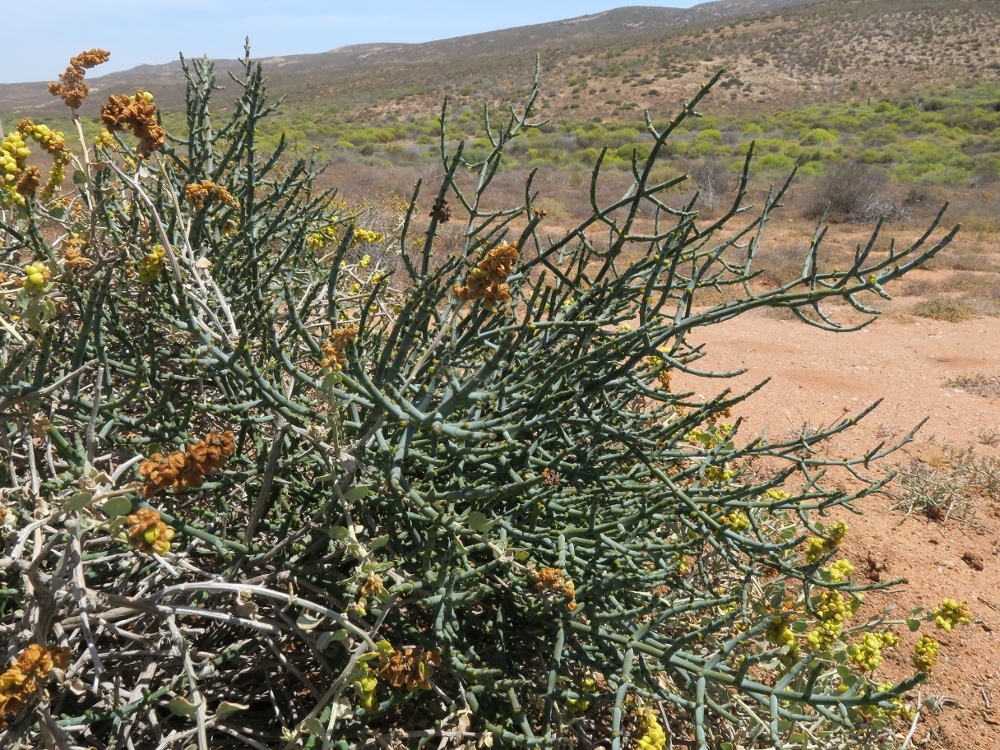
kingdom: Plantae
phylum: Tracheophyta
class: Magnoliopsida
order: Santalales
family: Viscaceae
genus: Viscum
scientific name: Viscum capense
